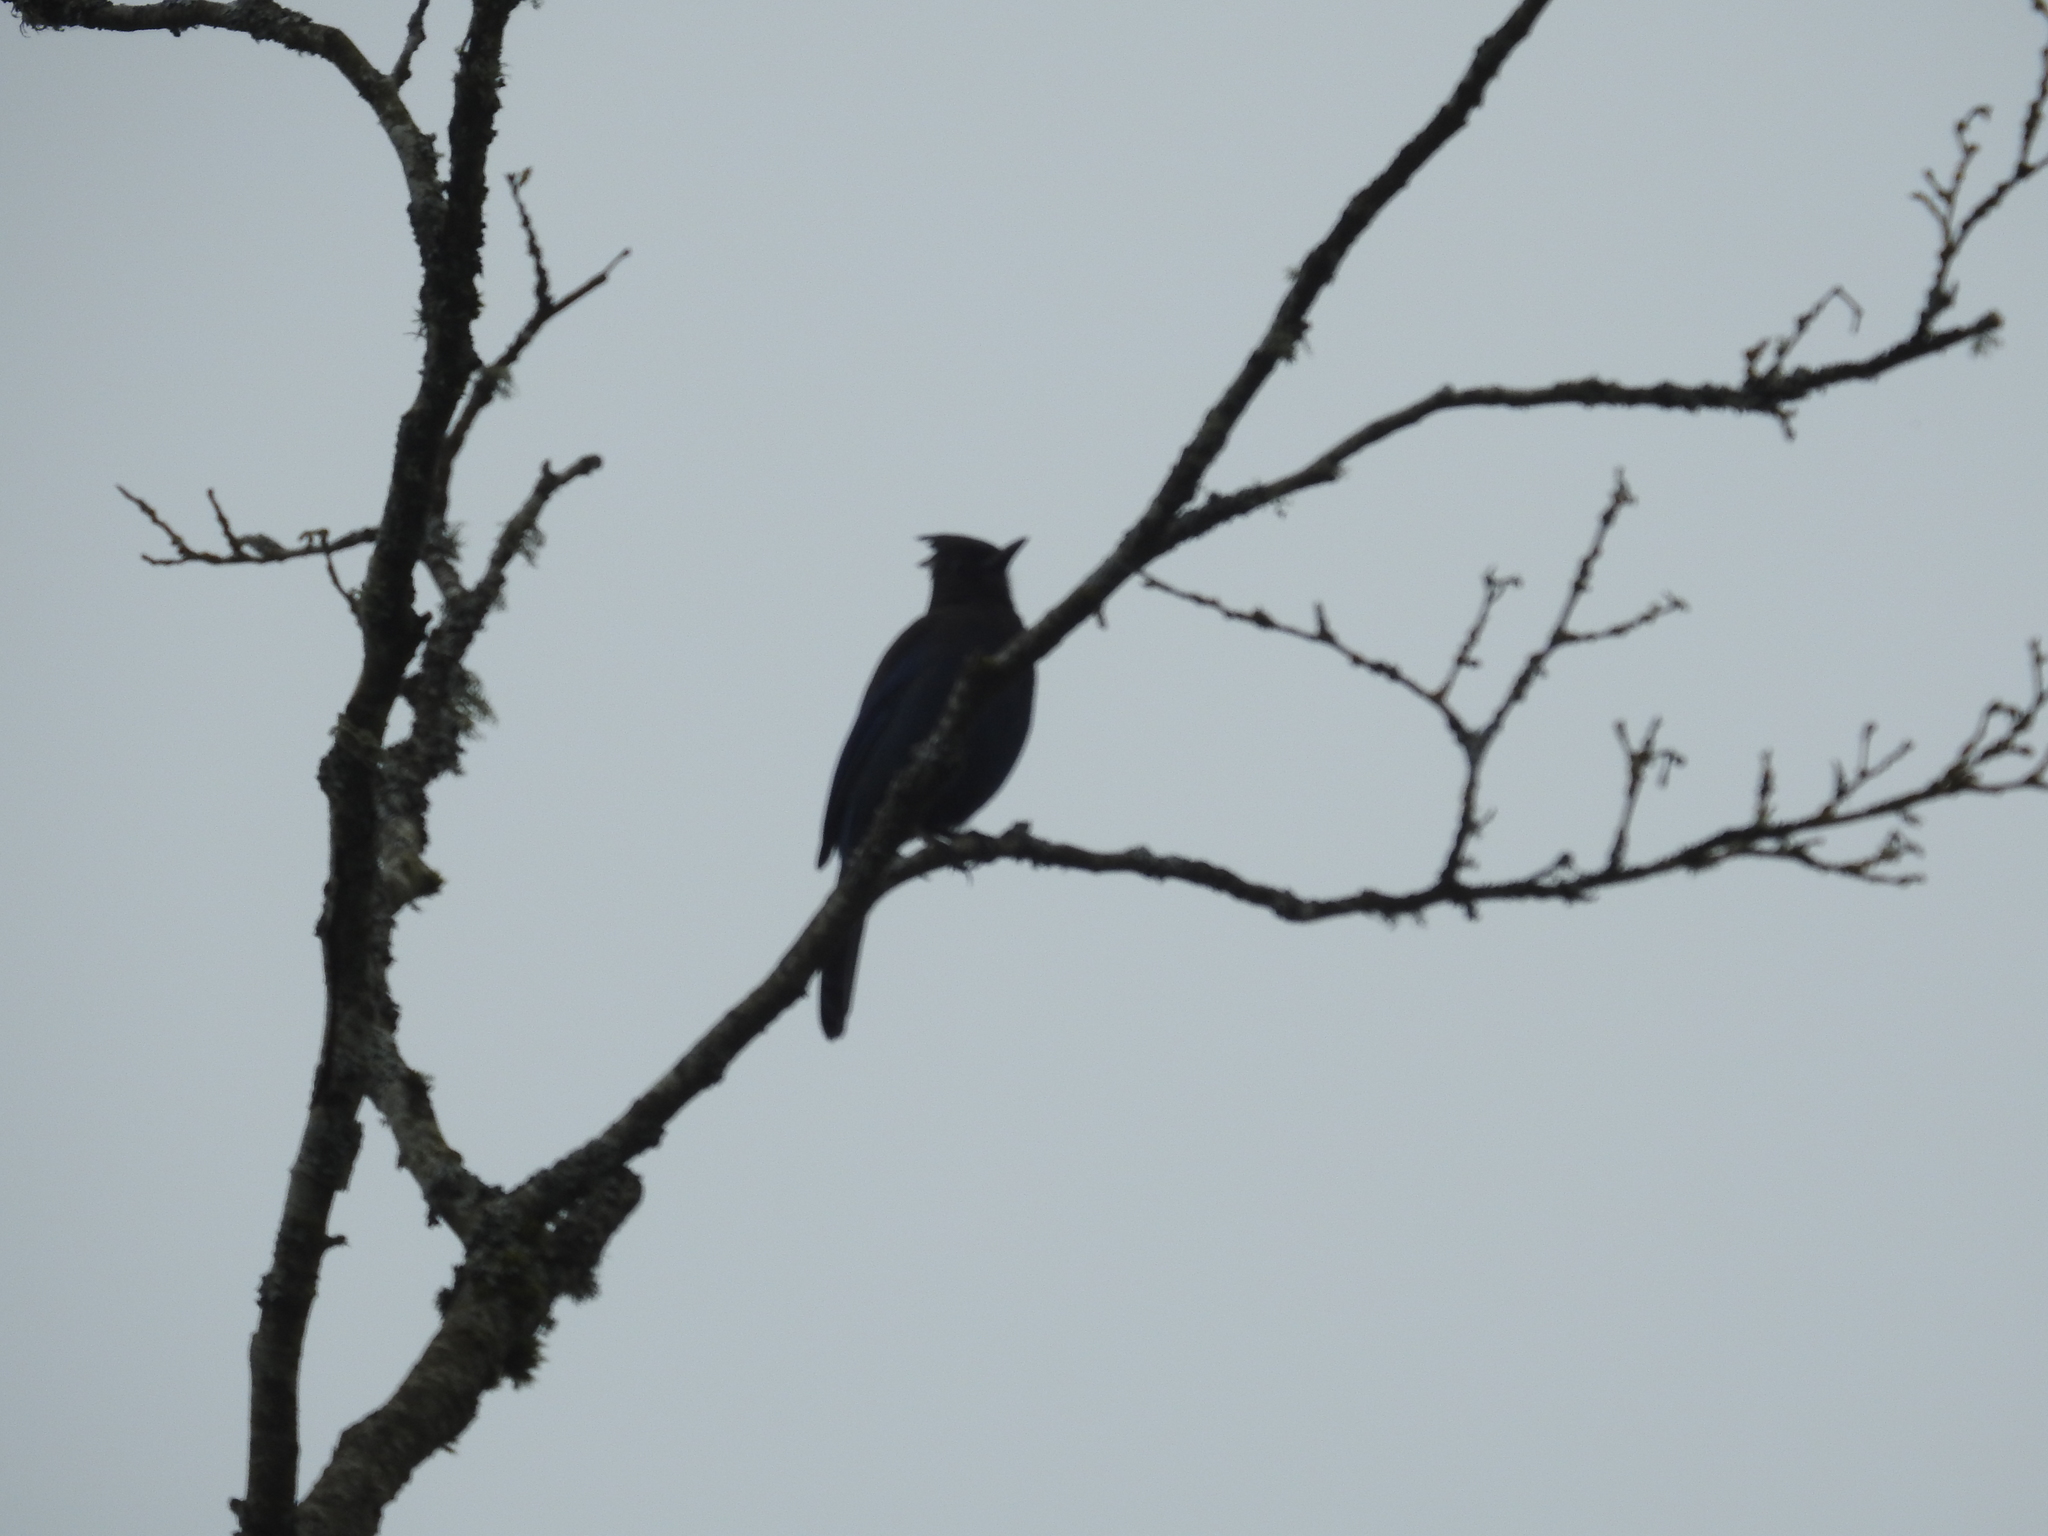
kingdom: Animalia
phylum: Chordata
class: Aves
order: Passeriformes
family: Corvidae
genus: Cyanocitta
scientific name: Cyanocitta stelleri
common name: Steller's jay
